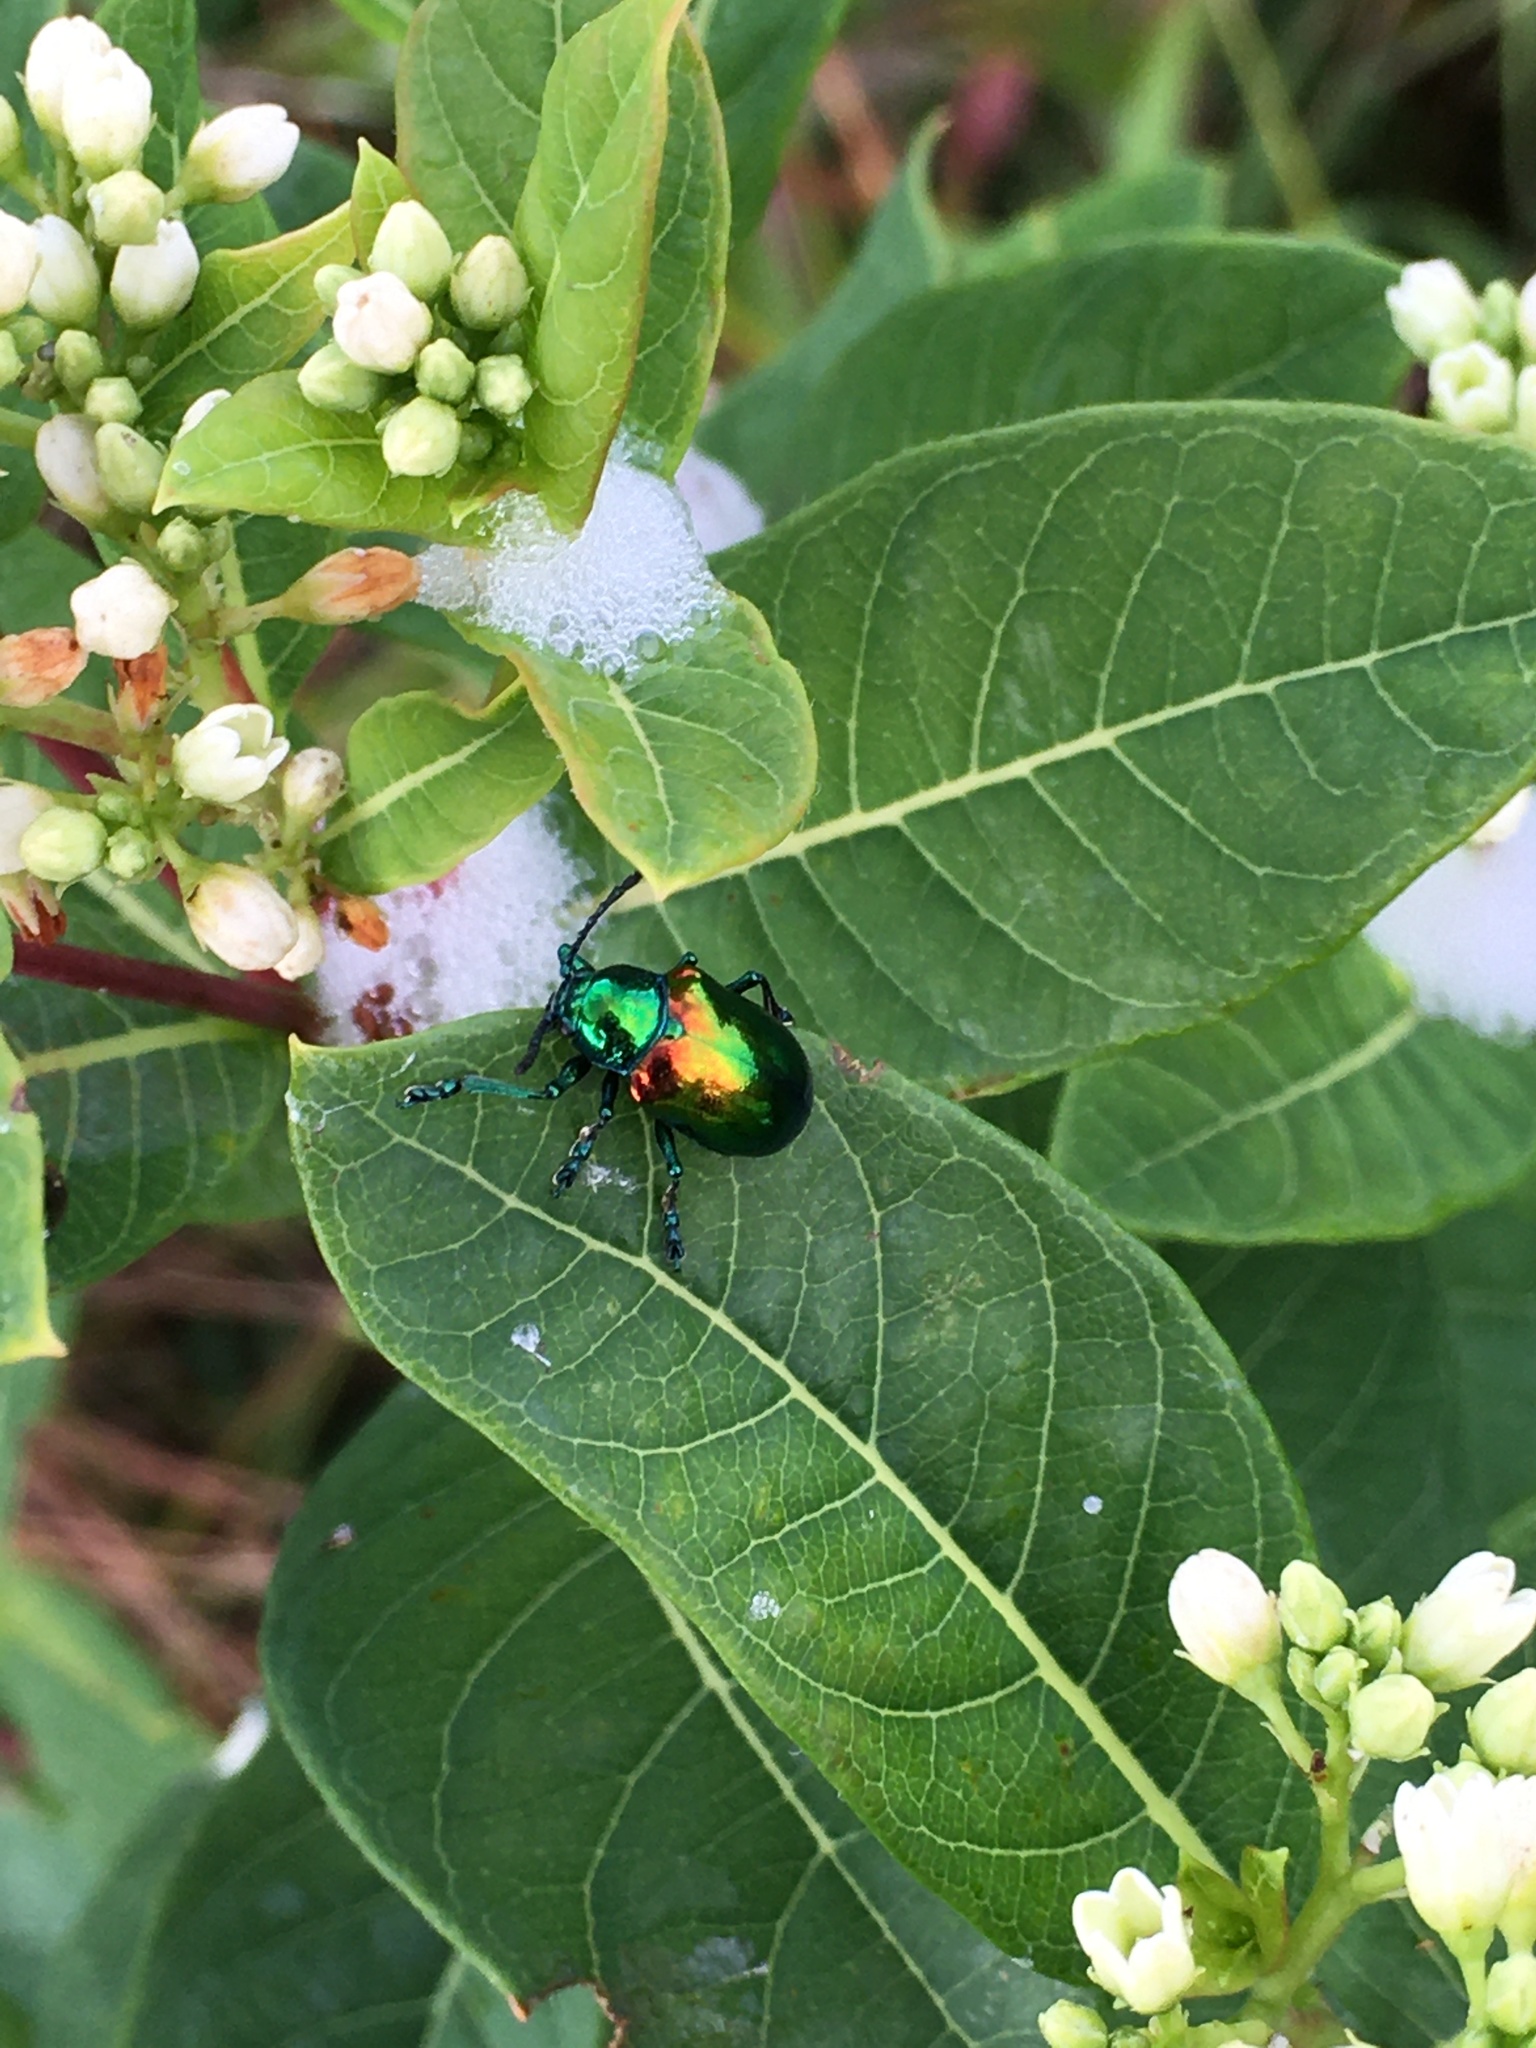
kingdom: Animalia
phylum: Arthropoda
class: Insecta
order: Coleoptera
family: Chrysomelidae
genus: Chrysochus
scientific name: Chrysochus auratus
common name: Dogbane leaf beetle
